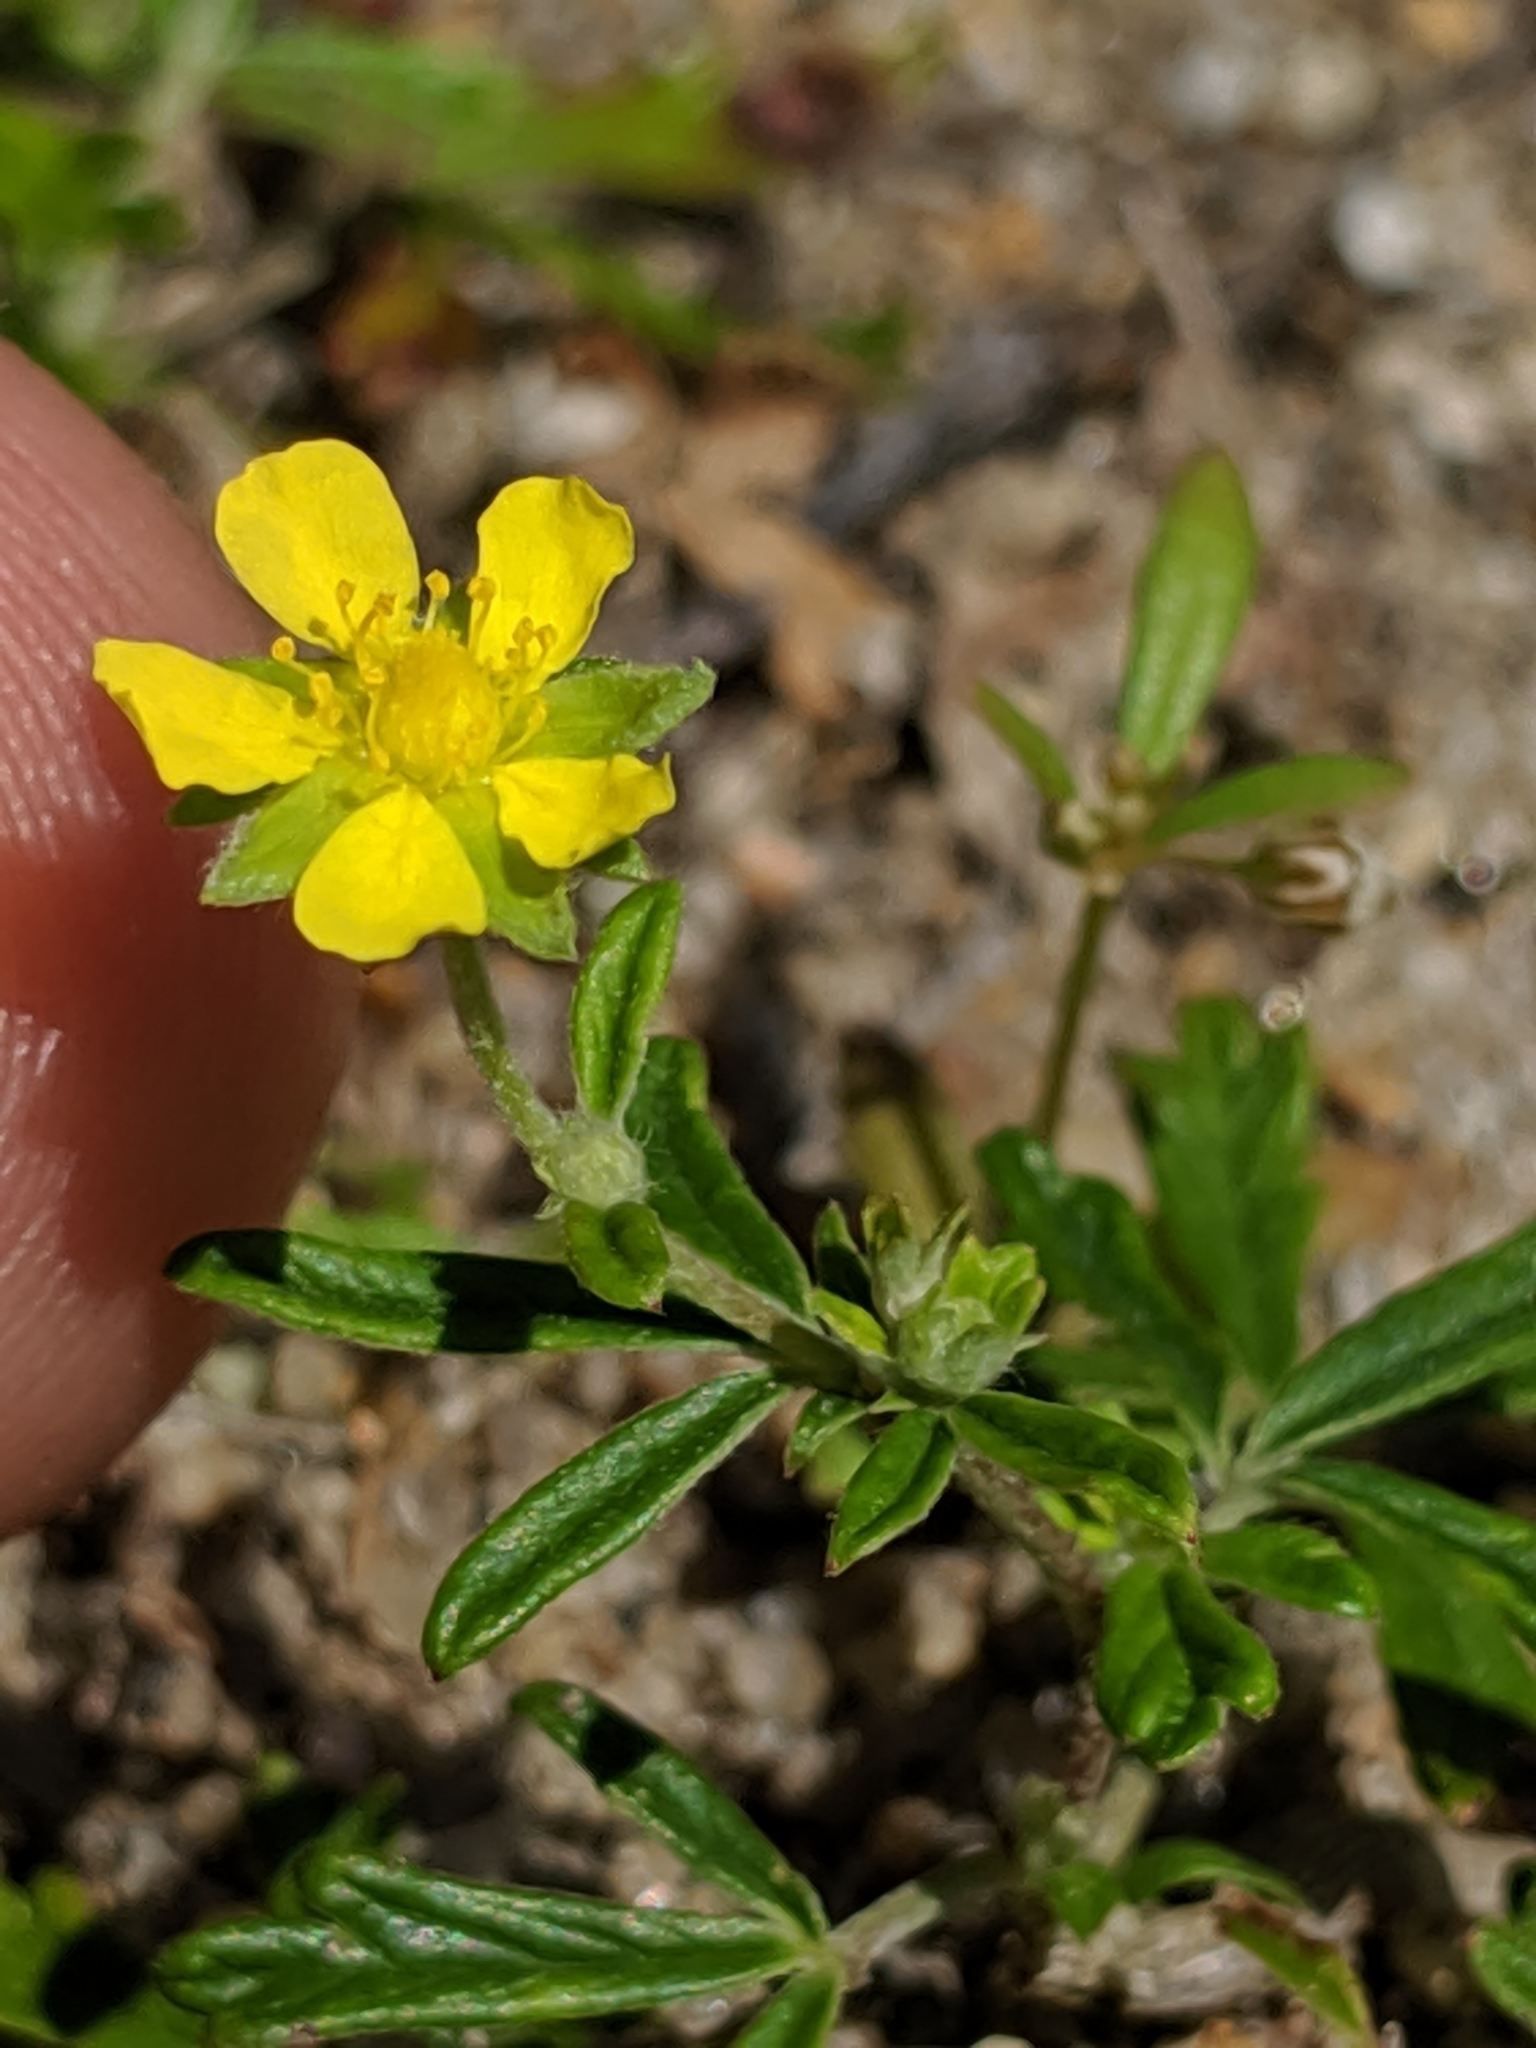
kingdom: Plantae
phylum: Tracheophyta
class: Magnoliopsida
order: Rosales
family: Rosaceae
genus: Potentilla
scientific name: Potentilla argentea
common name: Hoary cinquefoil
